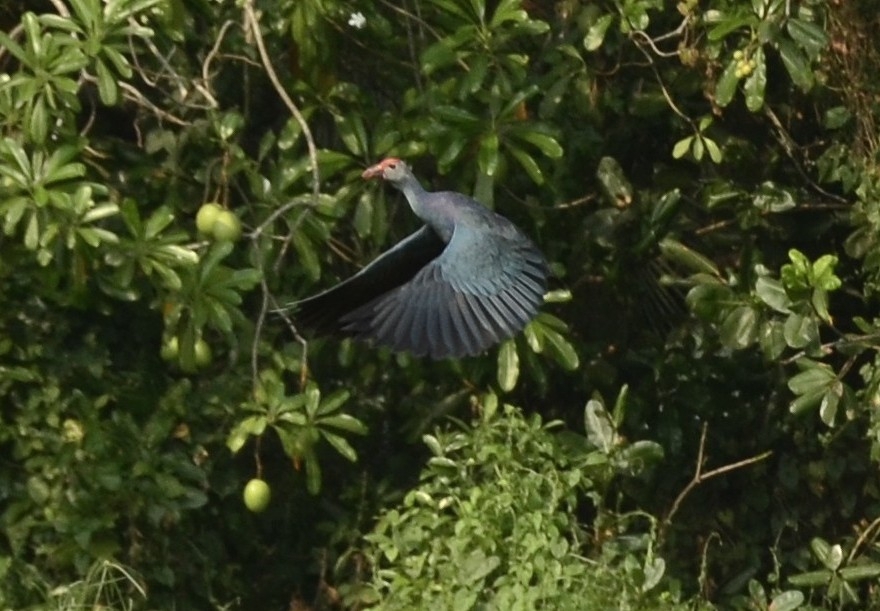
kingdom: Animalia
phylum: Chordata
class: Aves
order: Gruiformes
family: Rallidae
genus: Porphyrio
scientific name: Porphyrio porphyrio
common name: Purple swamphen
